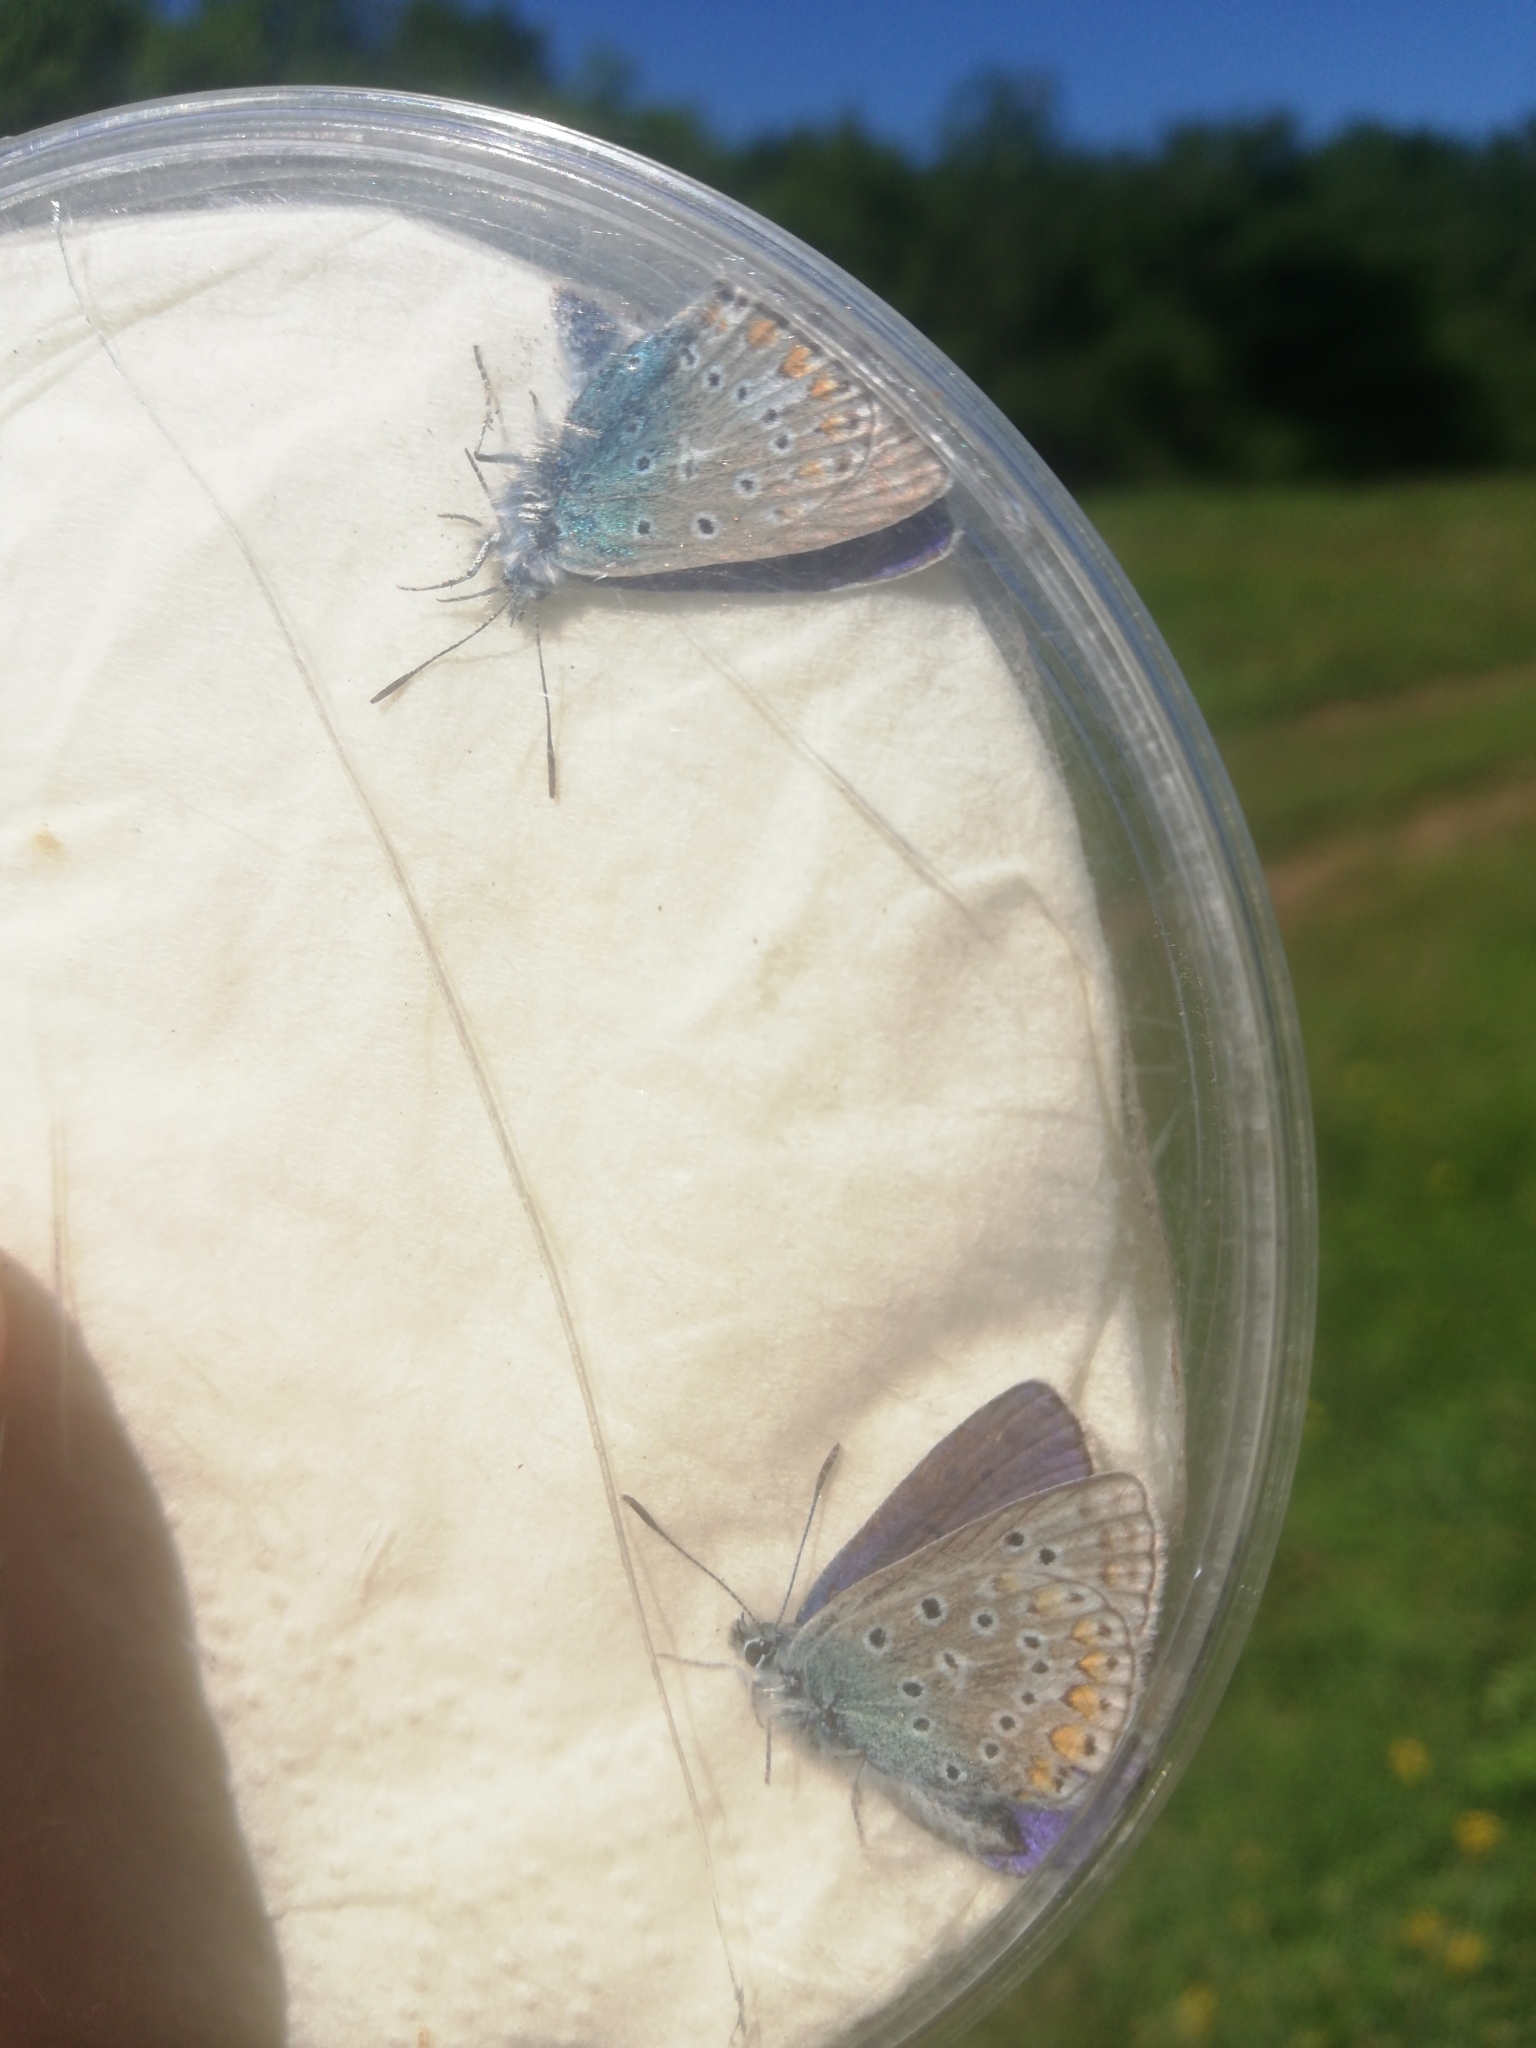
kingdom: Animalia
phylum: Arthropoda
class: Insecta
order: Lepidoptera
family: Lycaenidae
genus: Polyommatus
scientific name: Polyommatus icarus
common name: Common blue
